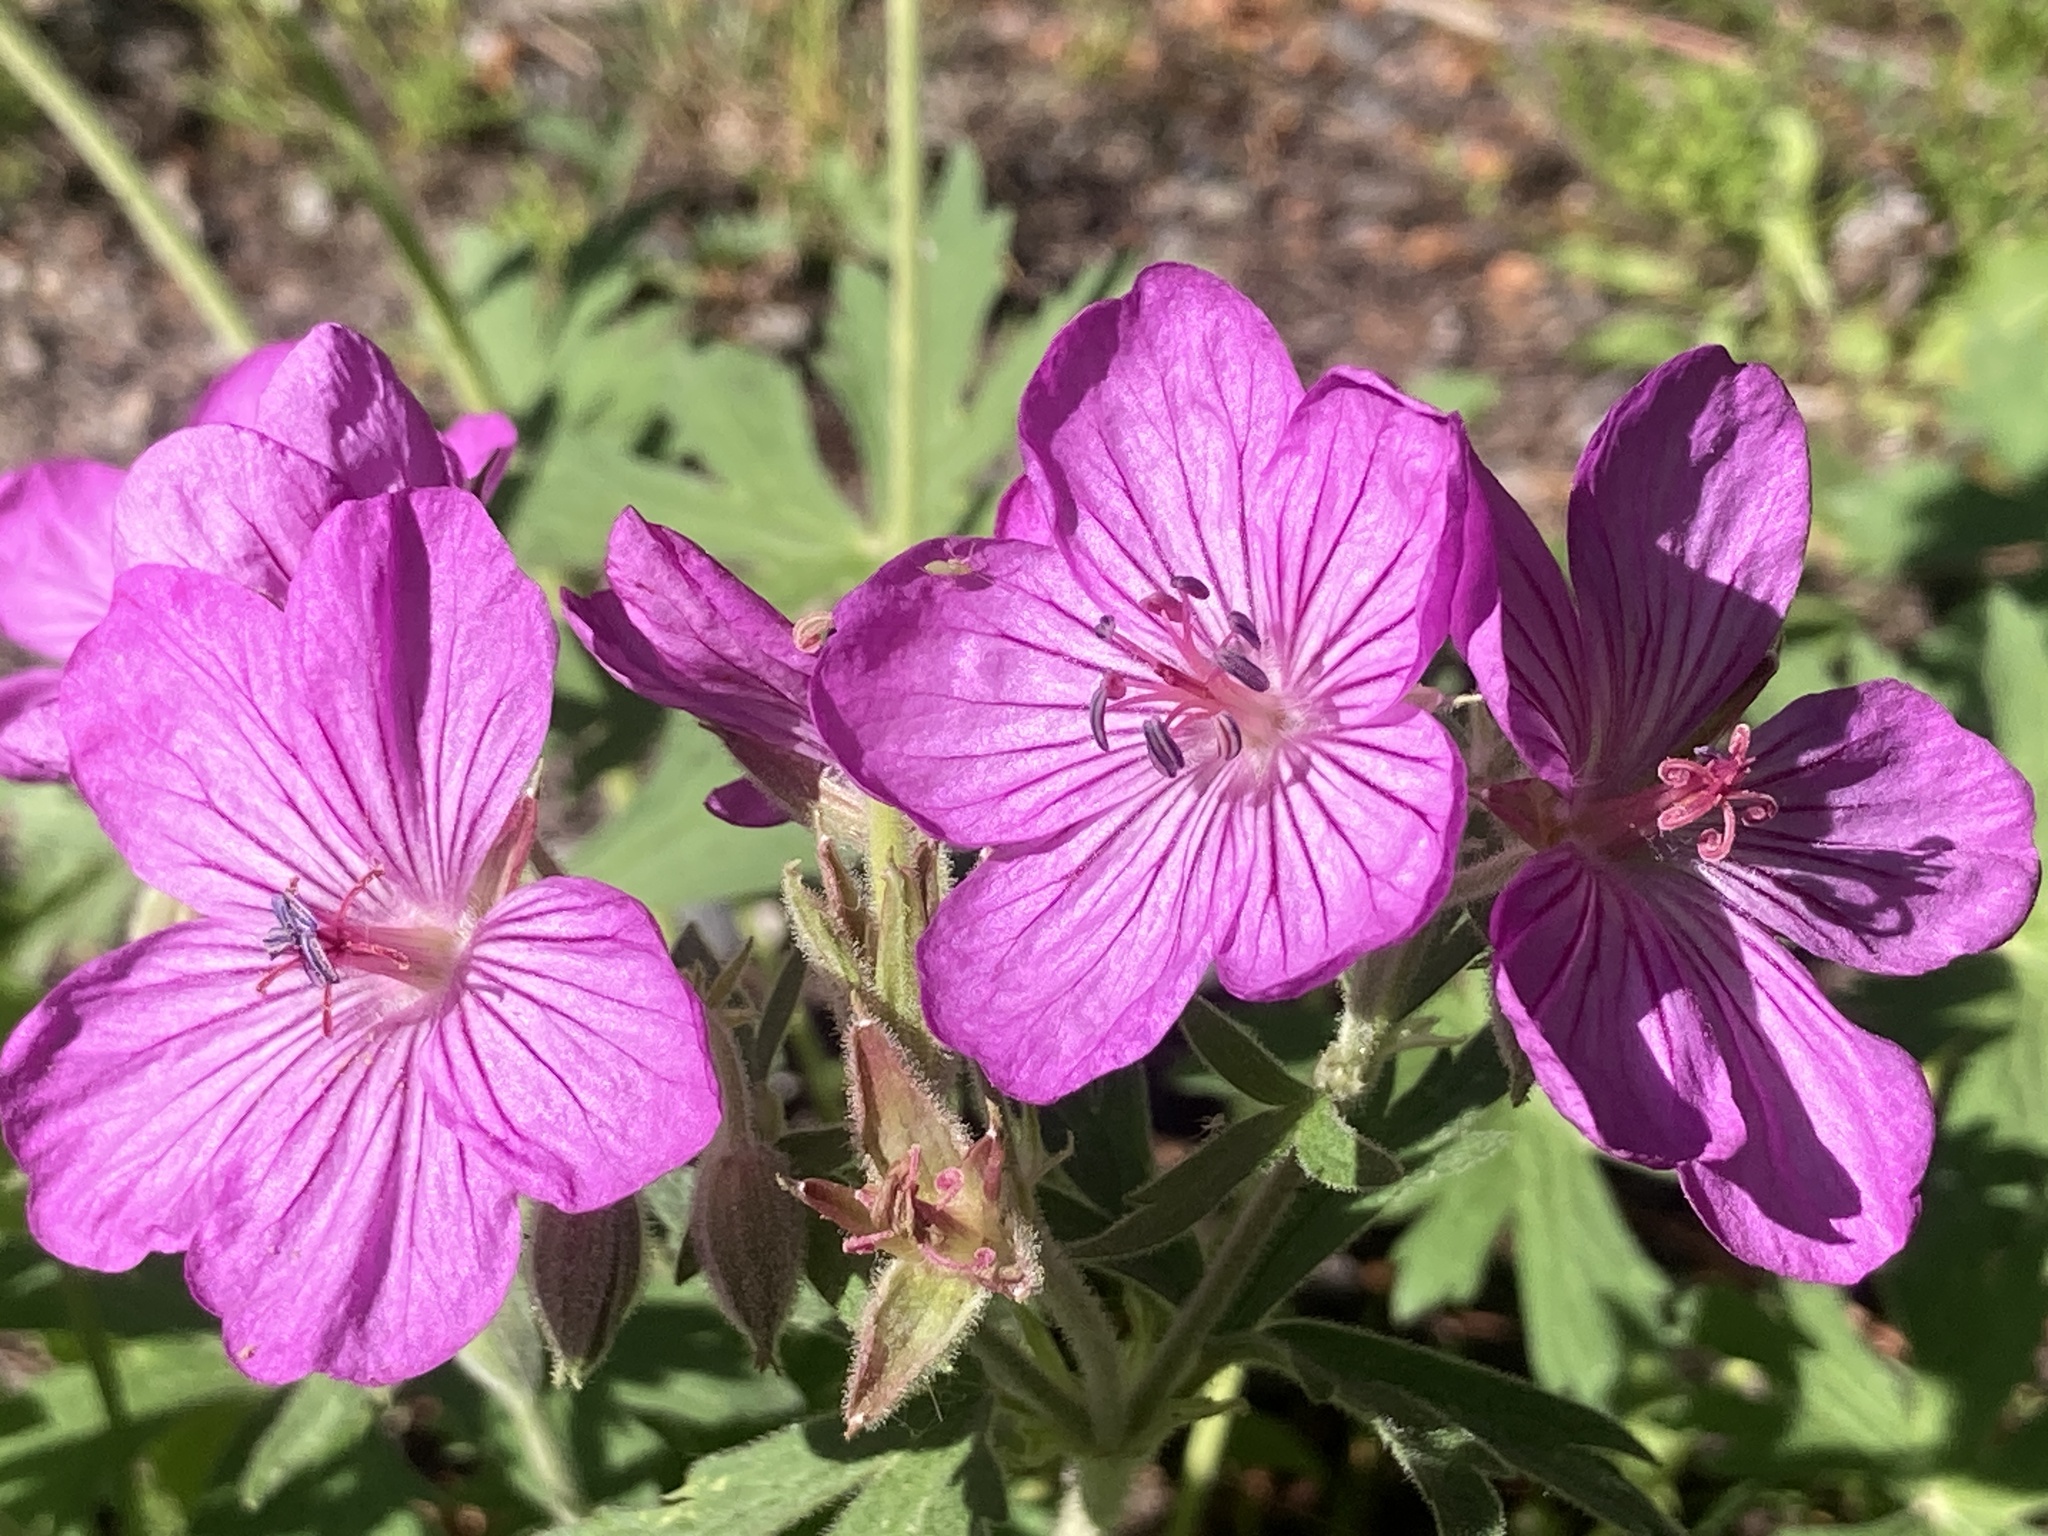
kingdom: Plantae
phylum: Tracheophyta
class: Magnoliopsida
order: Geraniales
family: Geraniaceae
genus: Geranium
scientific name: Geranium viscosissimum
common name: Purple geranium
